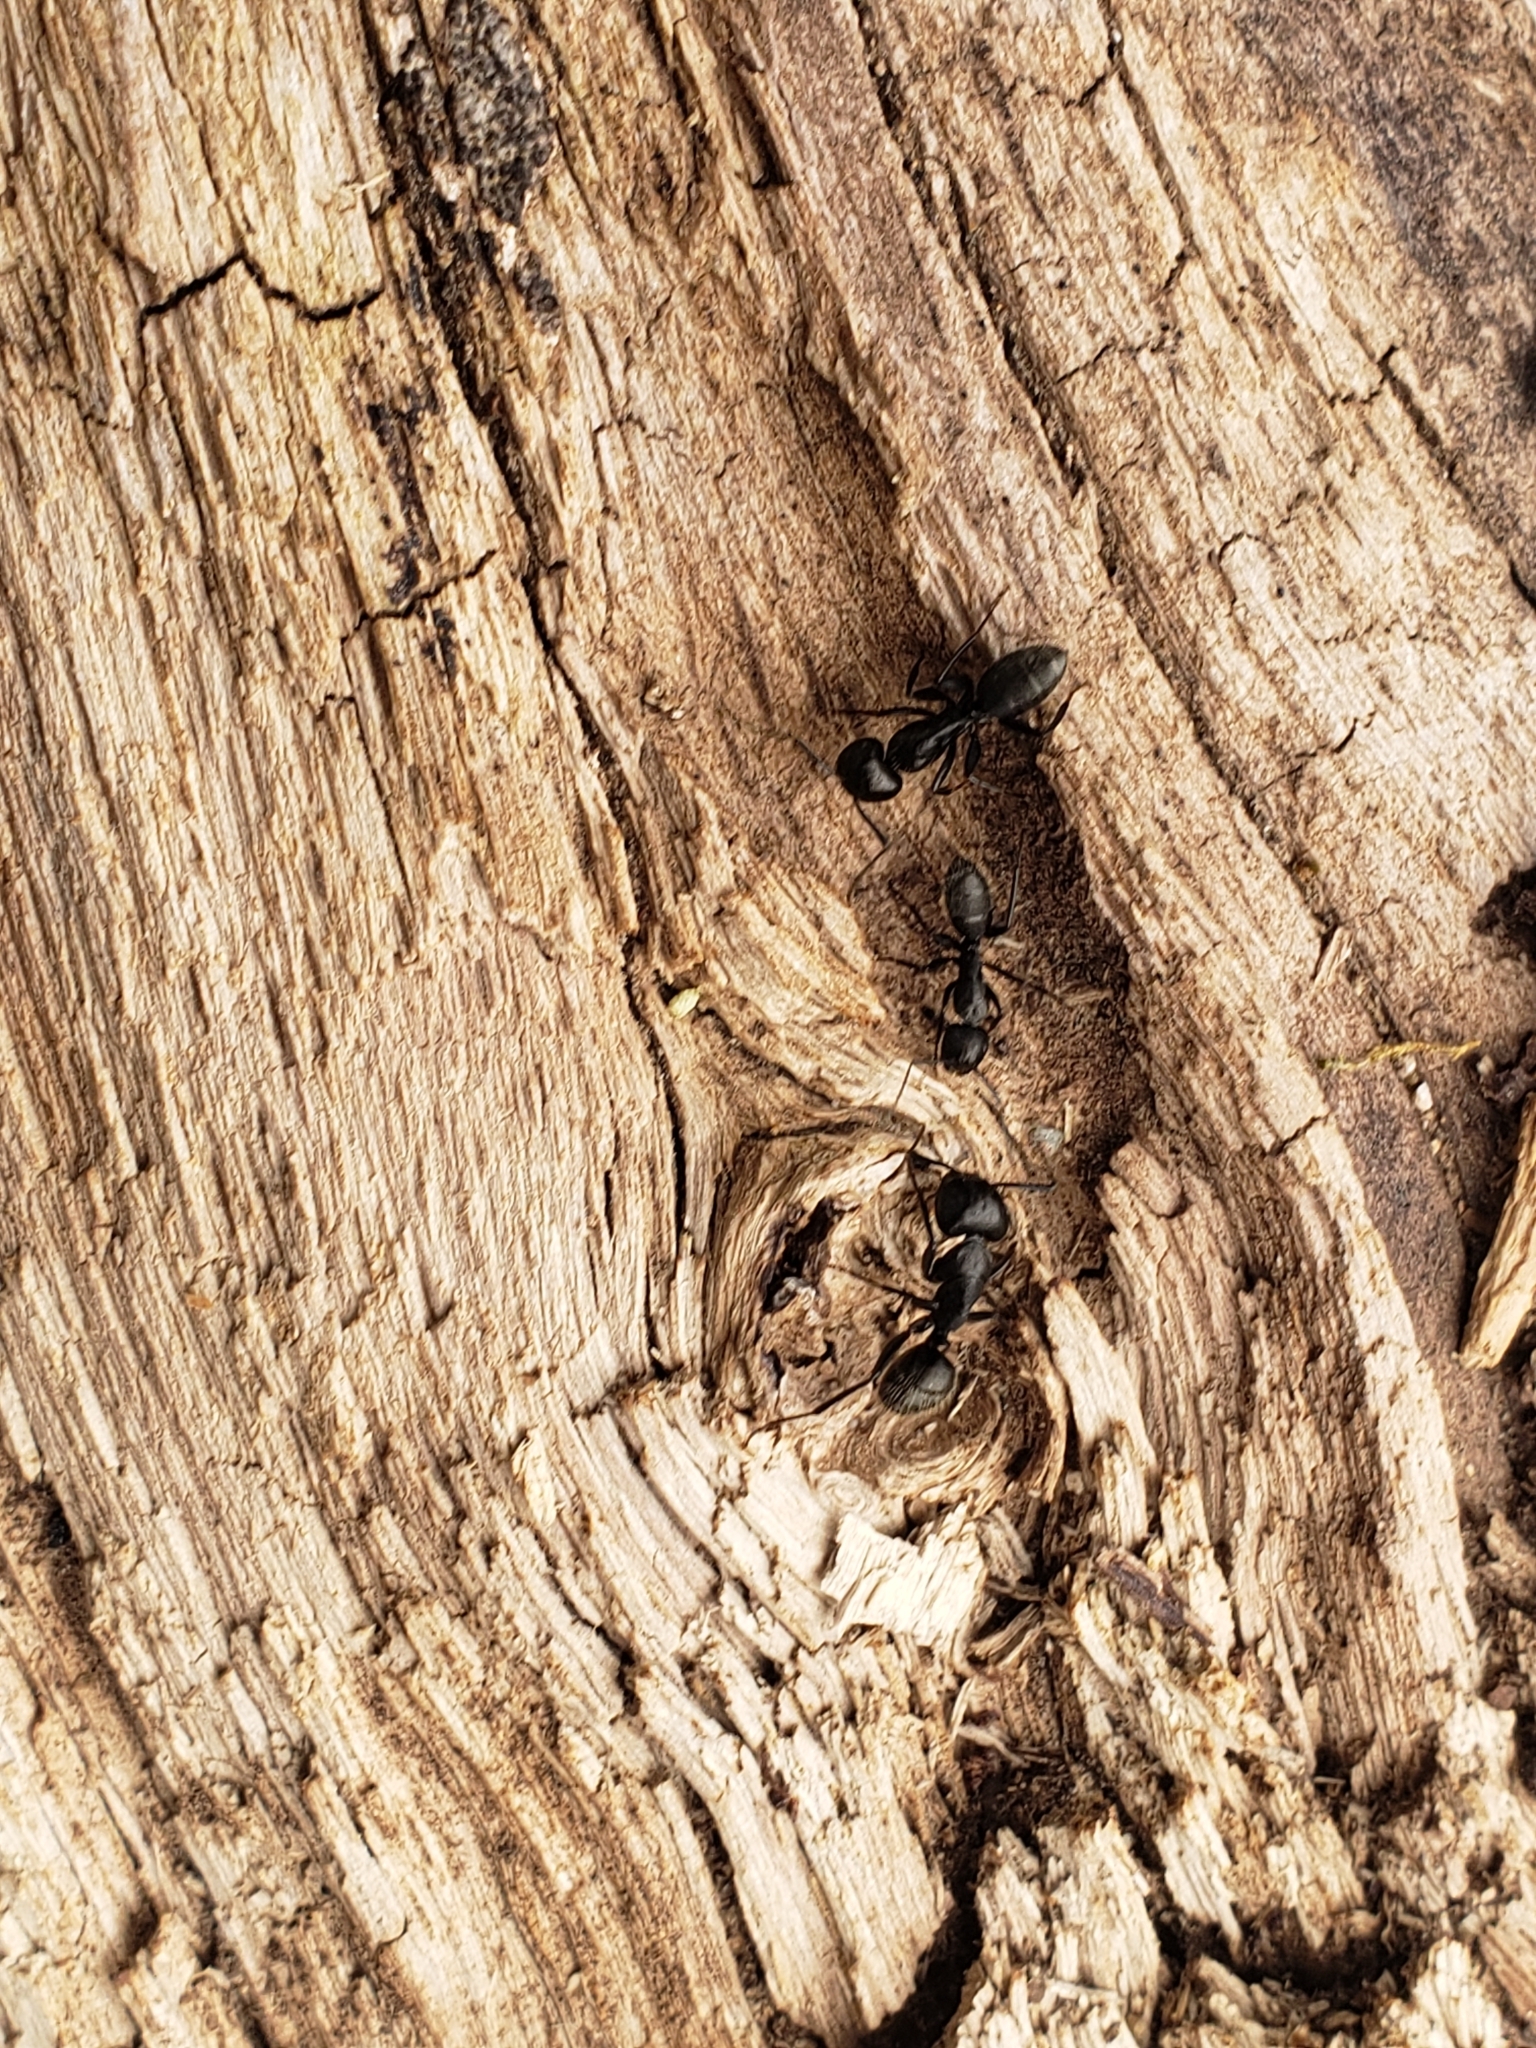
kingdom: Animalia
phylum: Arthropoda
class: Insecta
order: Hymenoptera
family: Formicidae
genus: Camponotus
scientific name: Camponotus vagus
